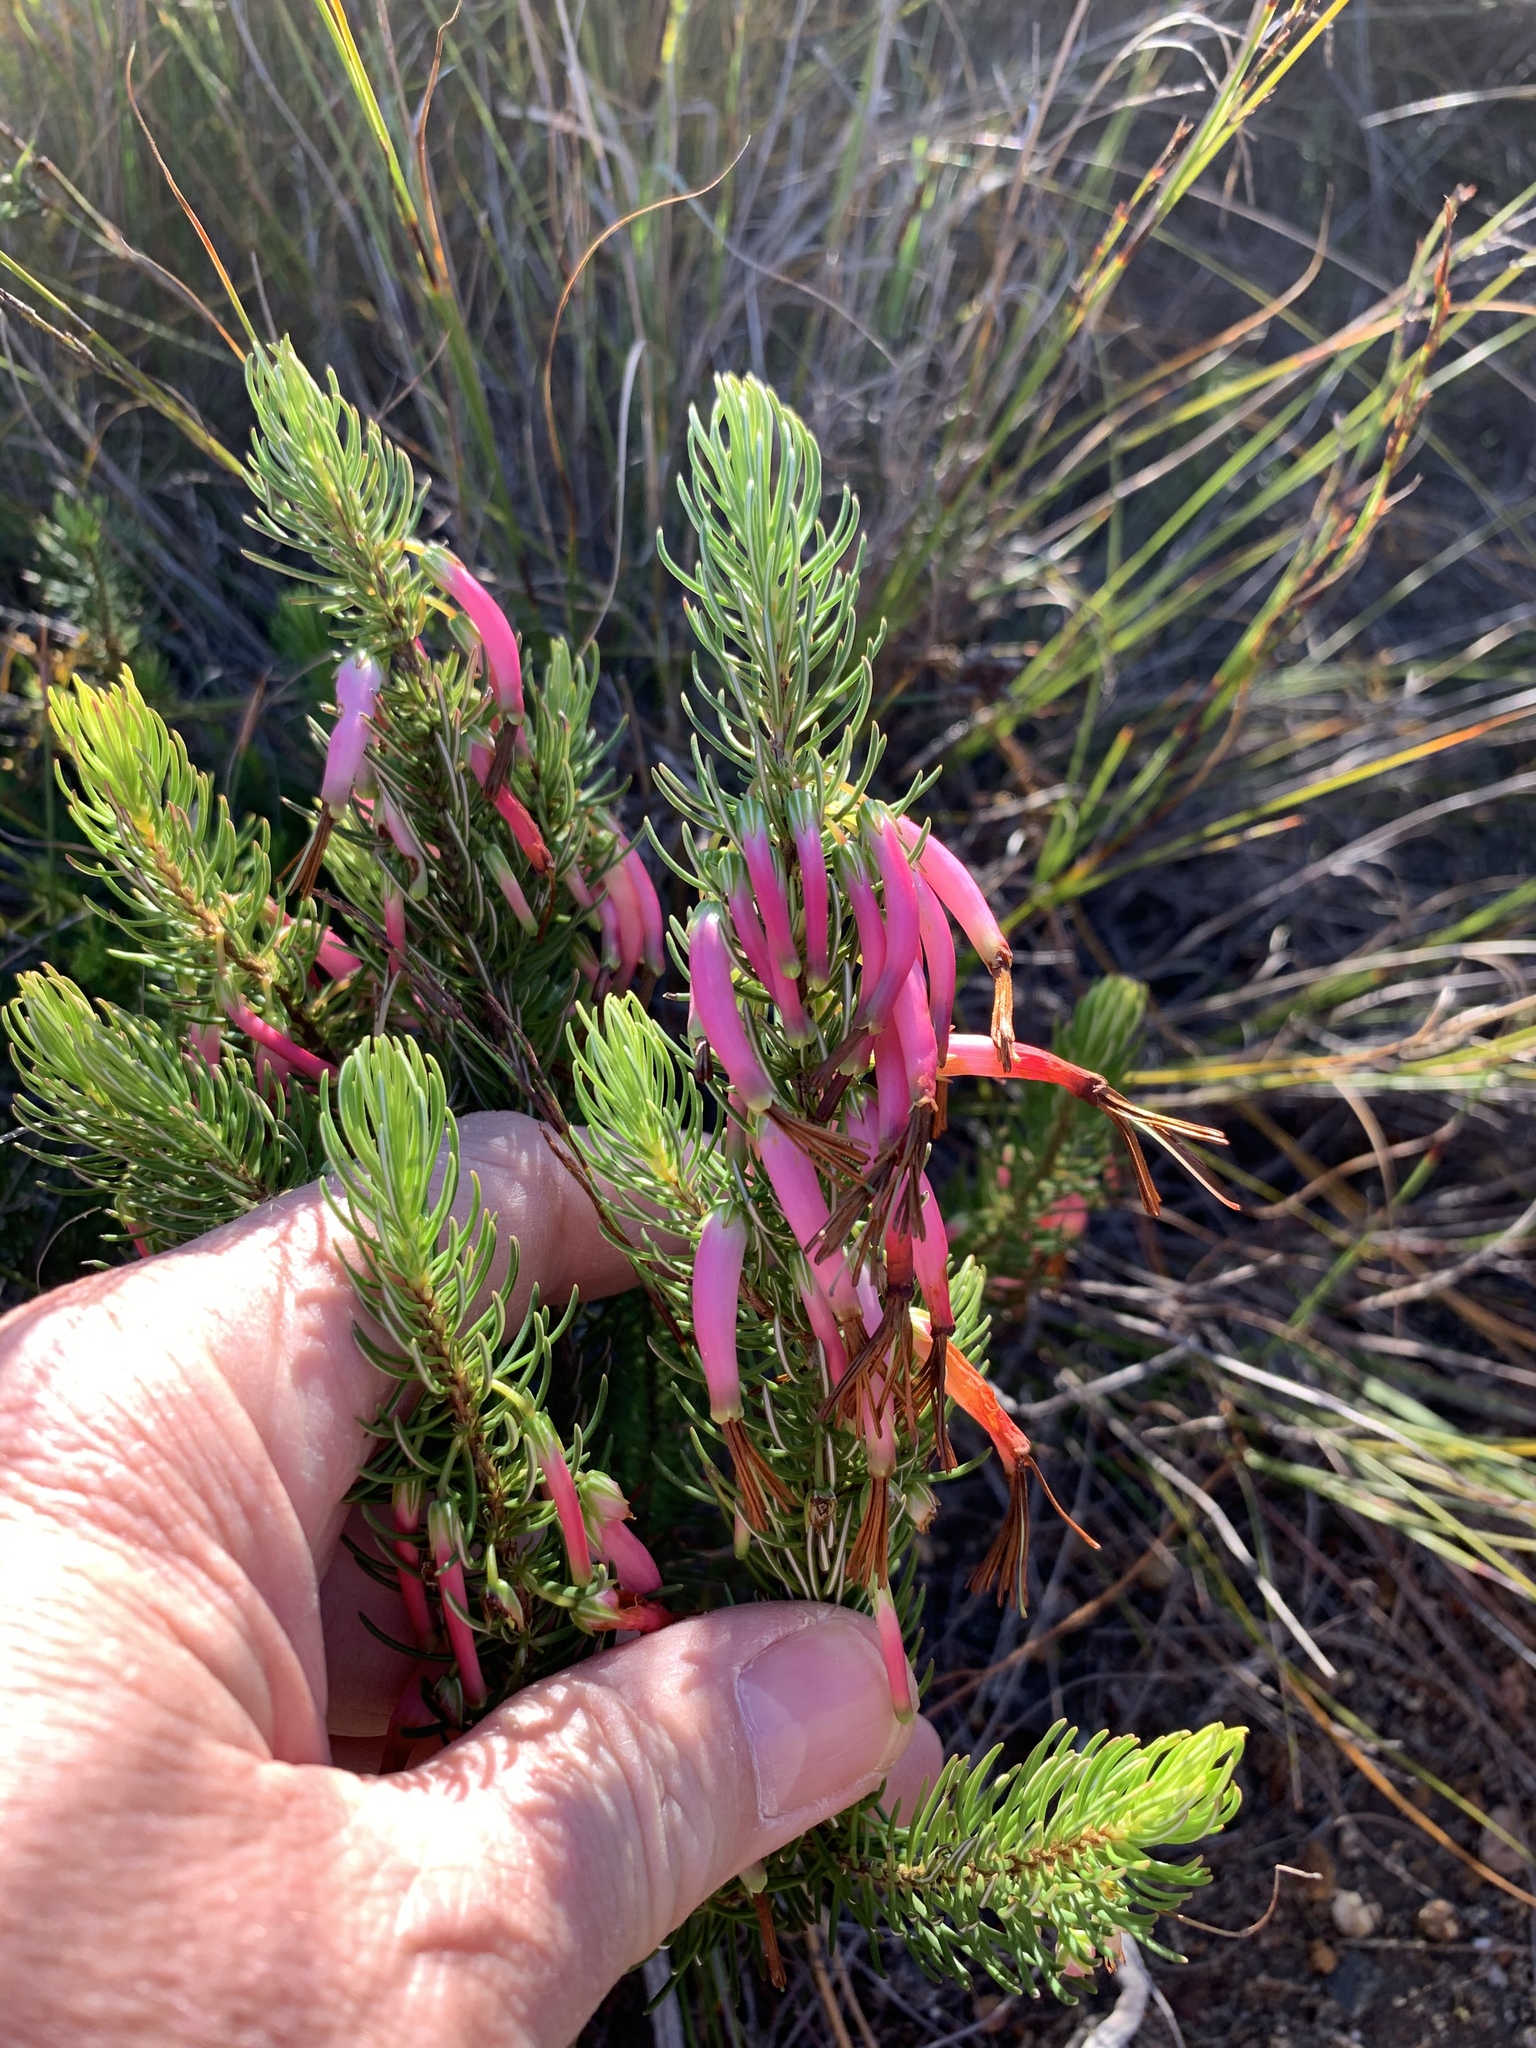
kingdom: Plantae
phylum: Tracheophyta
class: Magnoliopsida
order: Ericales
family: Ericaceae
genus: Erica
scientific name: Erica plukenetii
